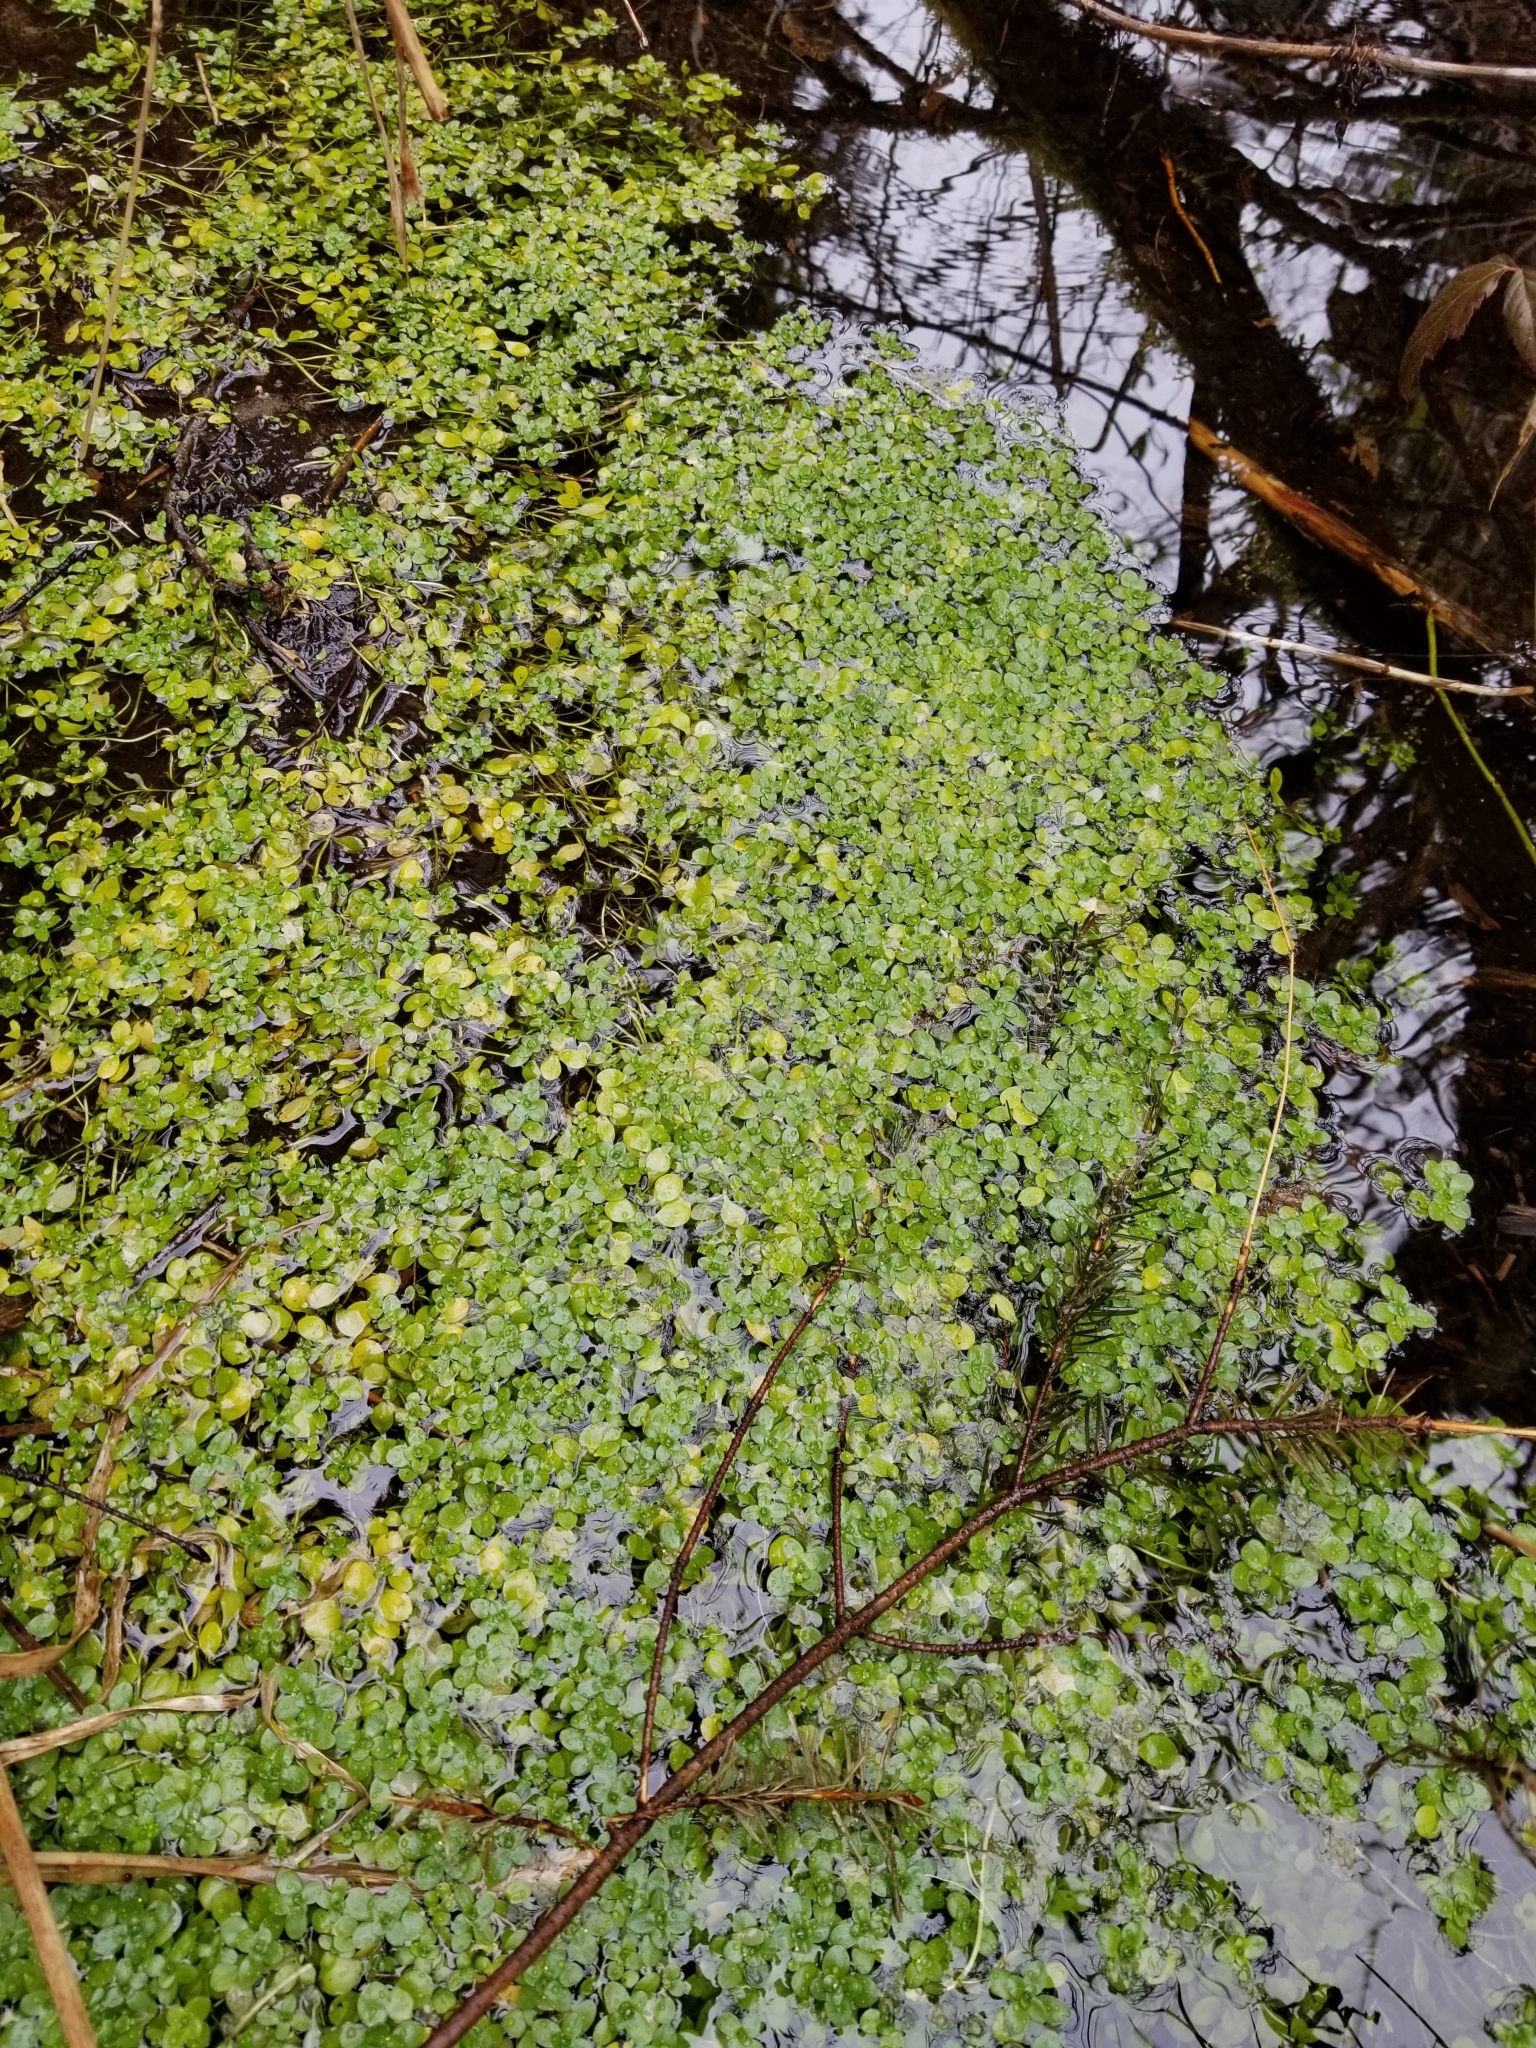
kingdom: Plantae
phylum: Tracheophyta
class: Magnoliopsida
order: Lamiales
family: Plantaginaceae
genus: Callitriche
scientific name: Callitriche stagnalis
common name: Common water-starwort
